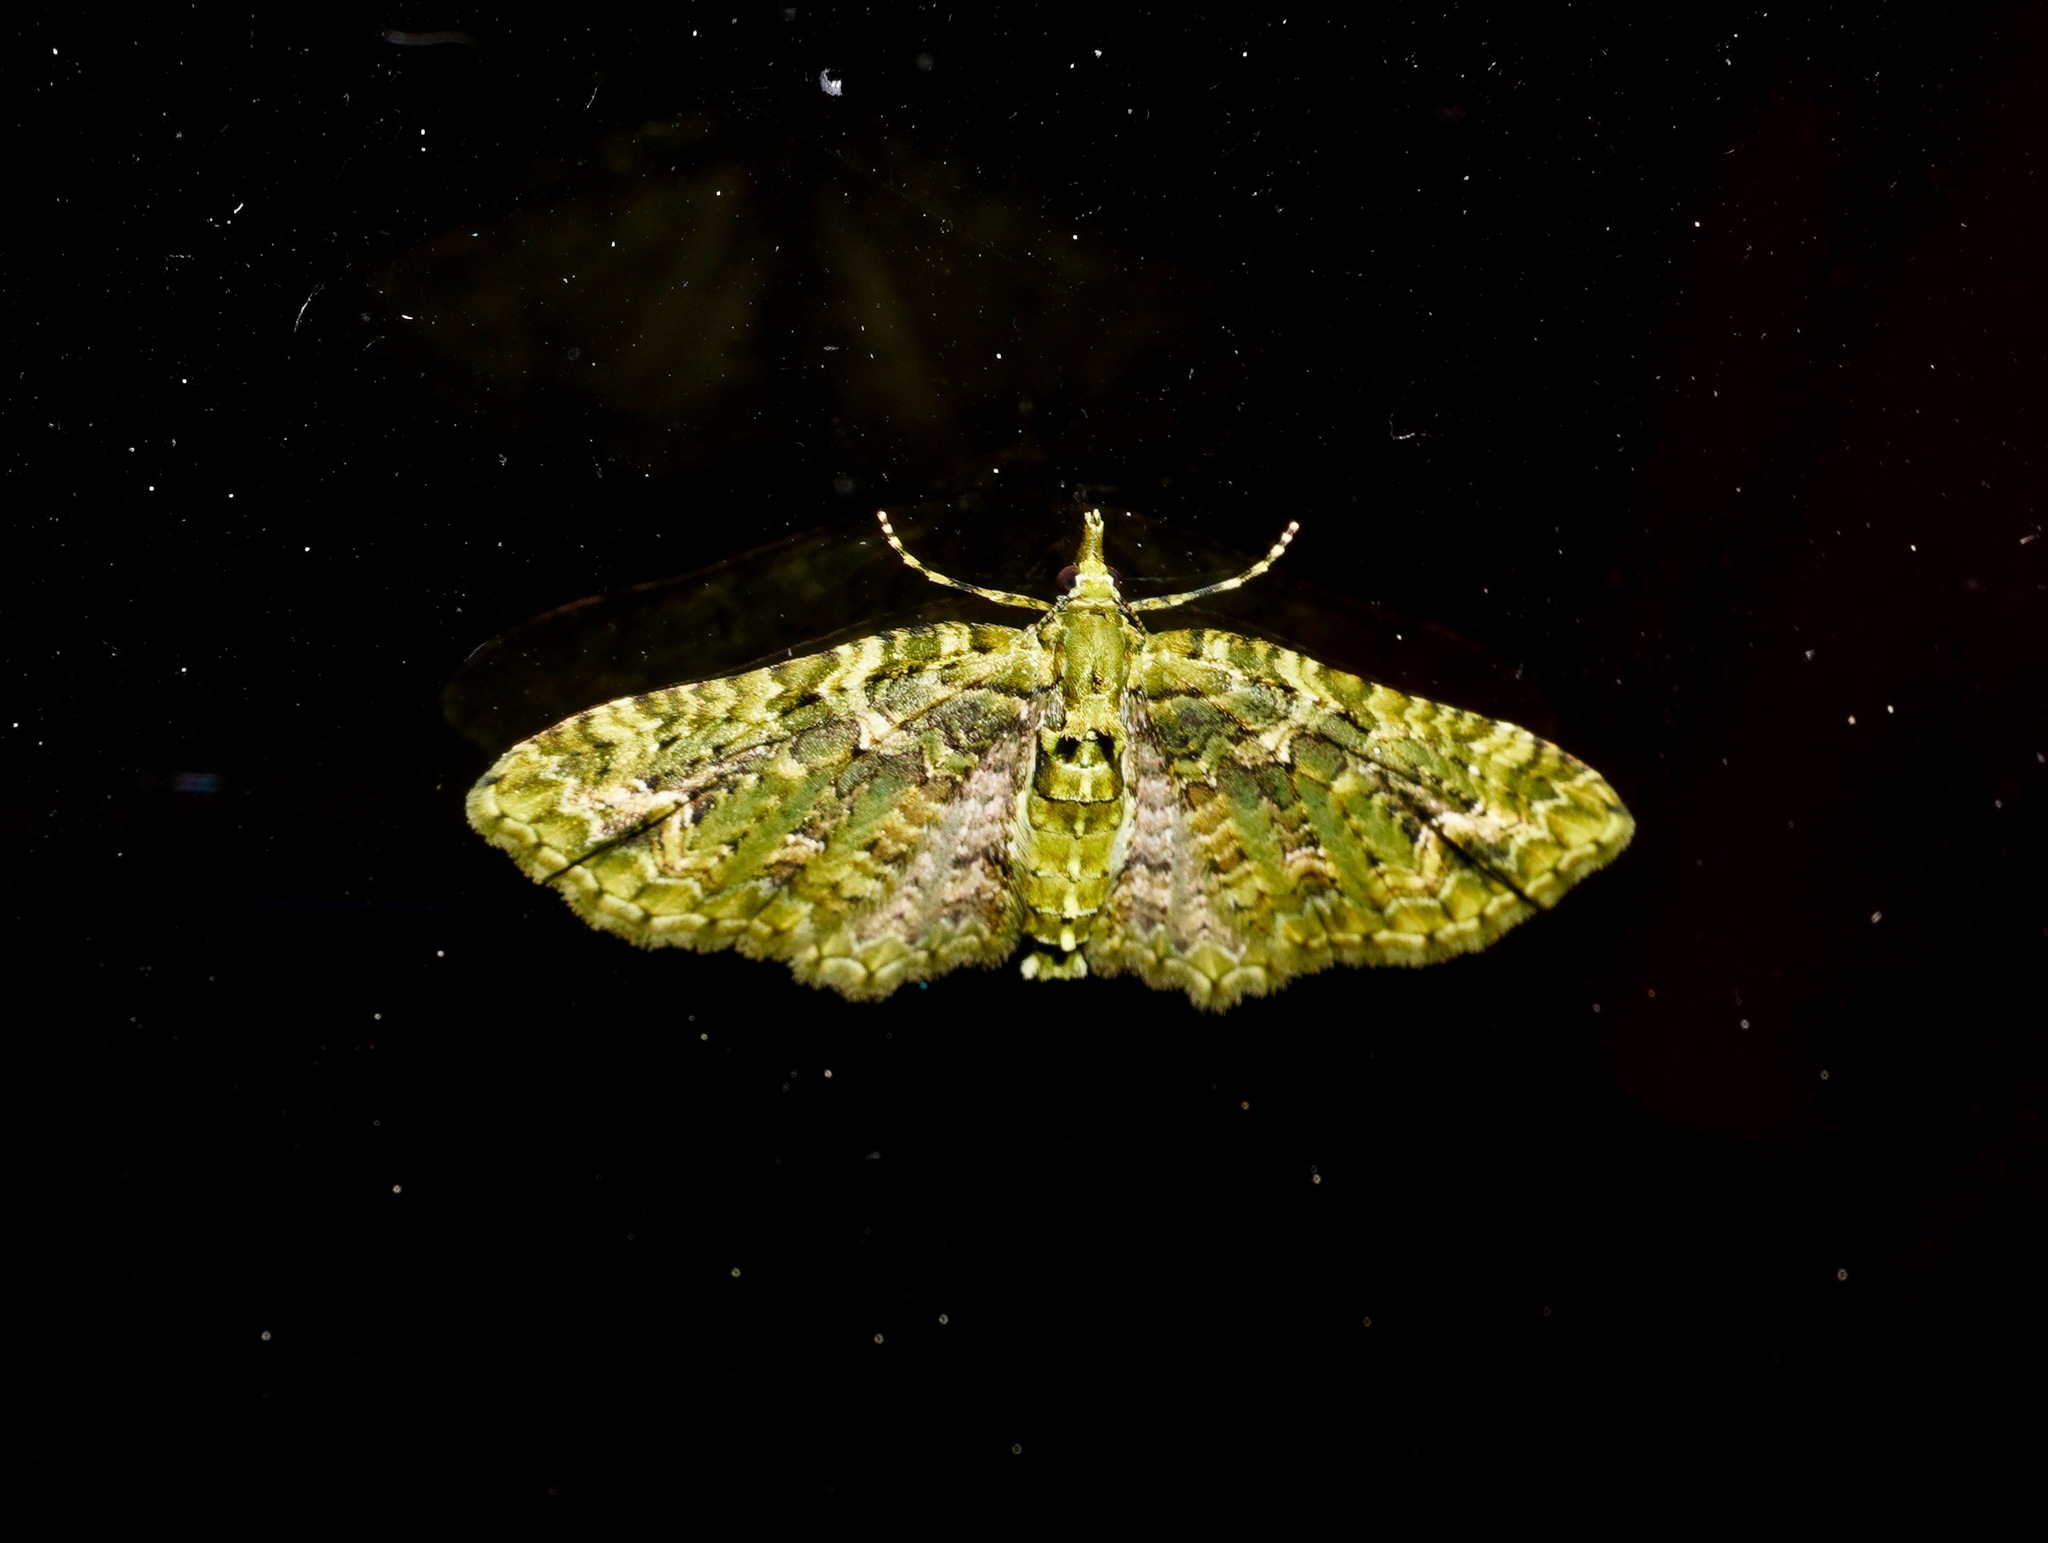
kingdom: Animalia
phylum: Arthropoda
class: Insecta
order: Lepidoptera
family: Geometridae
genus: Pasiphila
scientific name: Pasiphila muscosata
